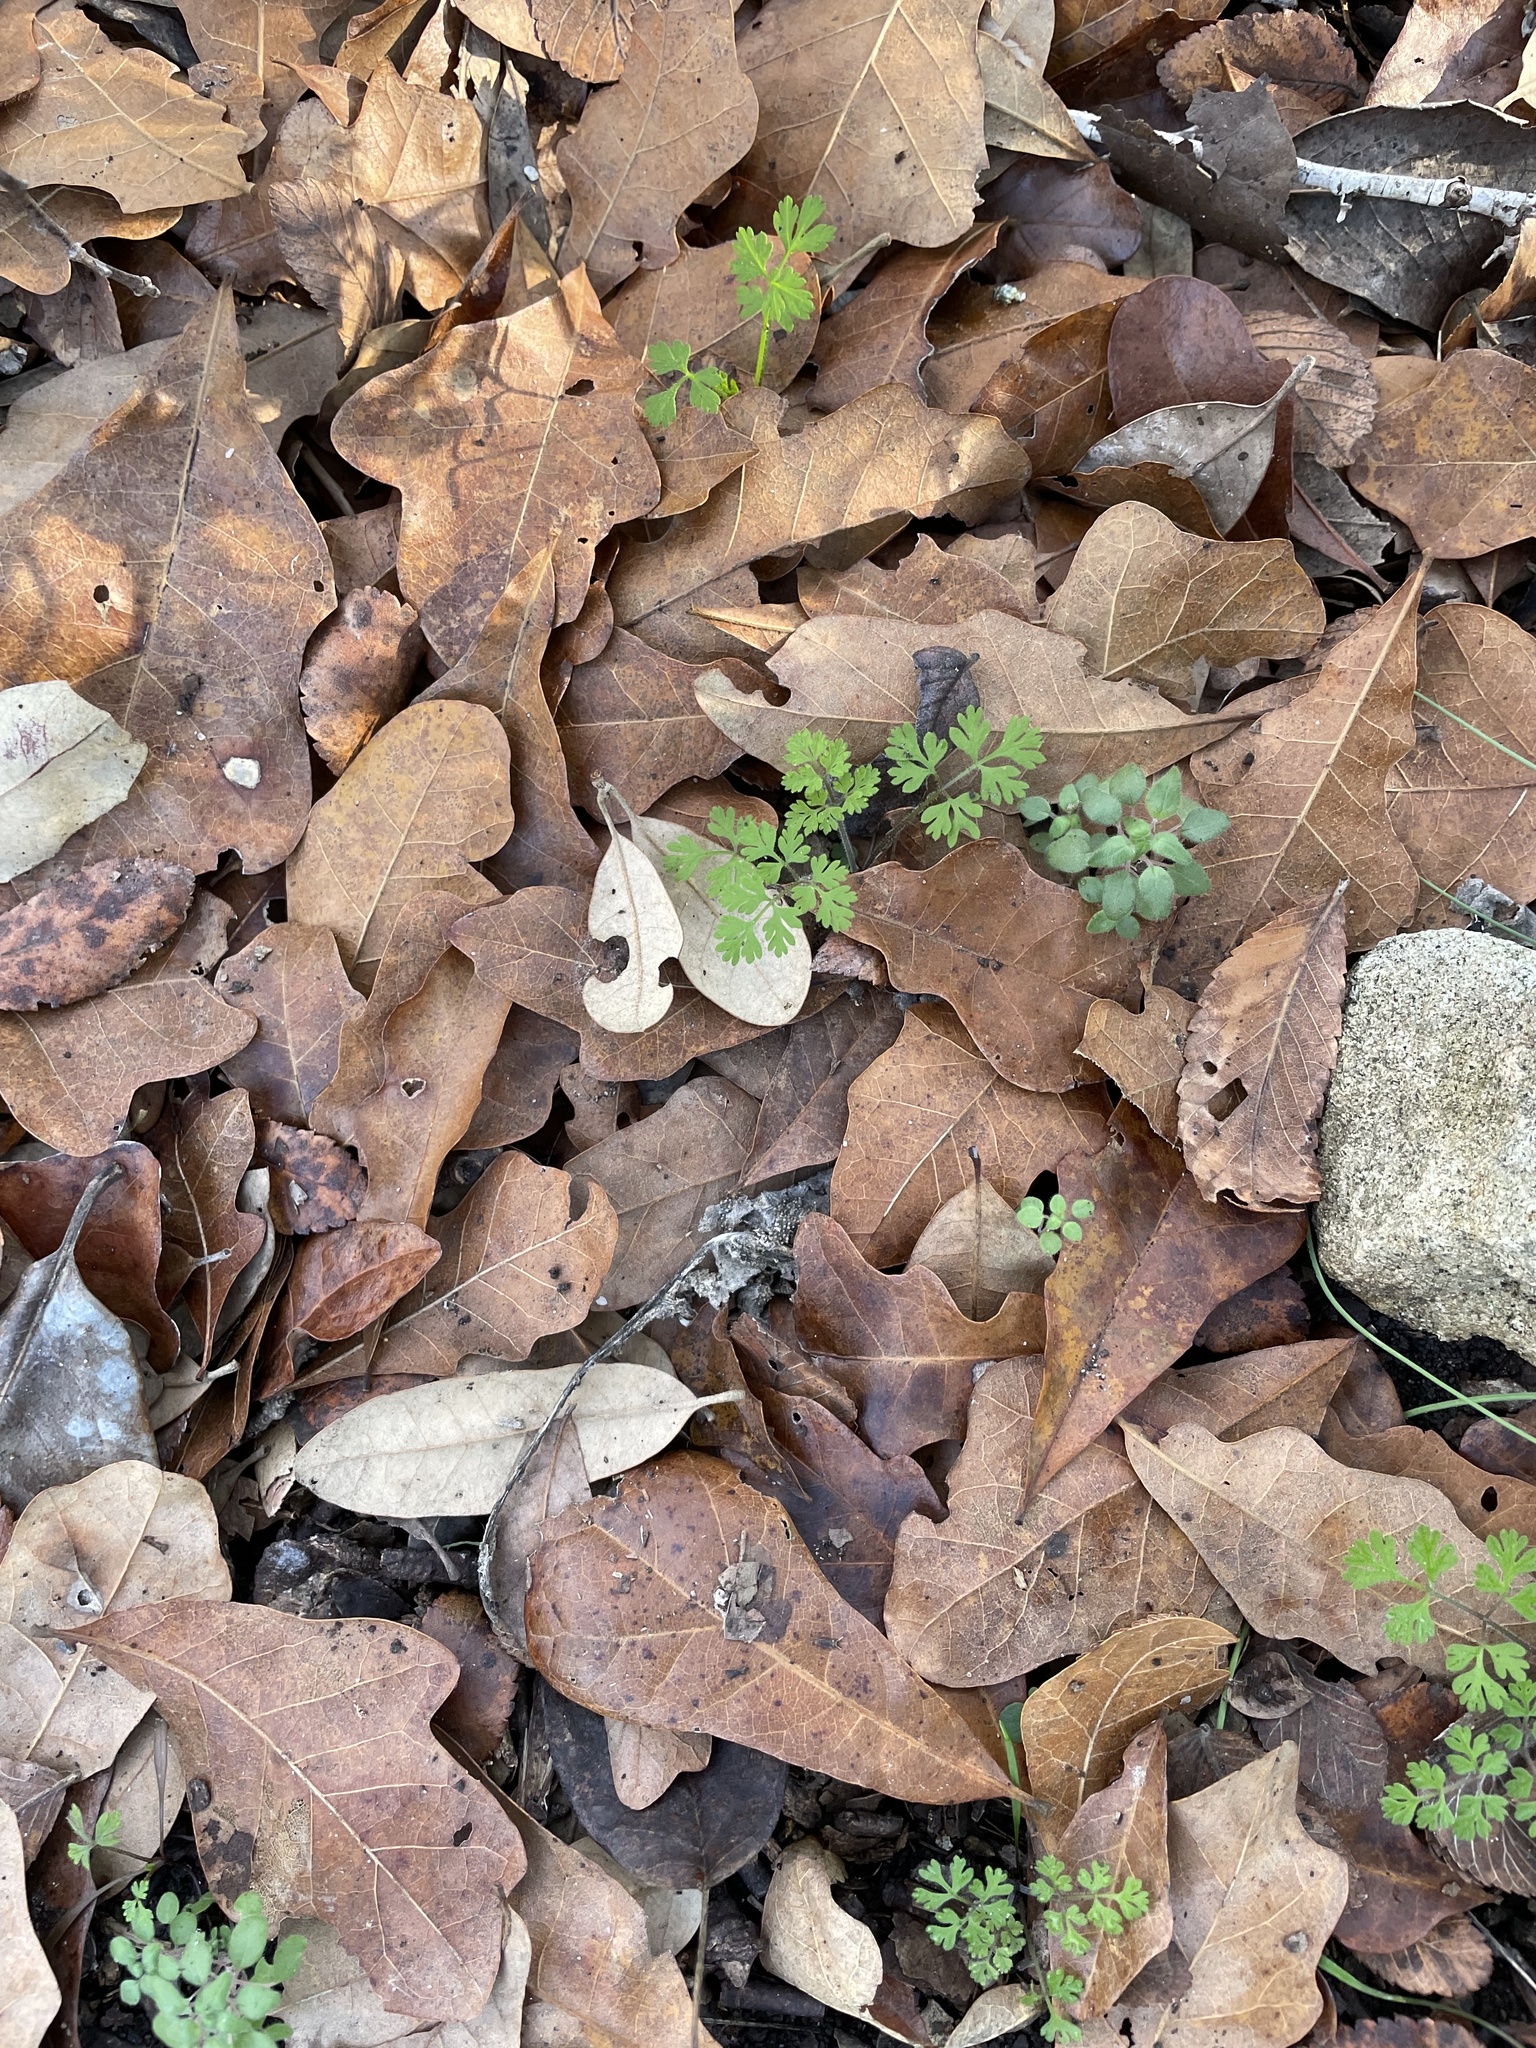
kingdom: Plantae
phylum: Tracheophyta
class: Magnoliopsida
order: Fagales
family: Fagaceae
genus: Quercus
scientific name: Quercus sinuata
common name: Durand oak
